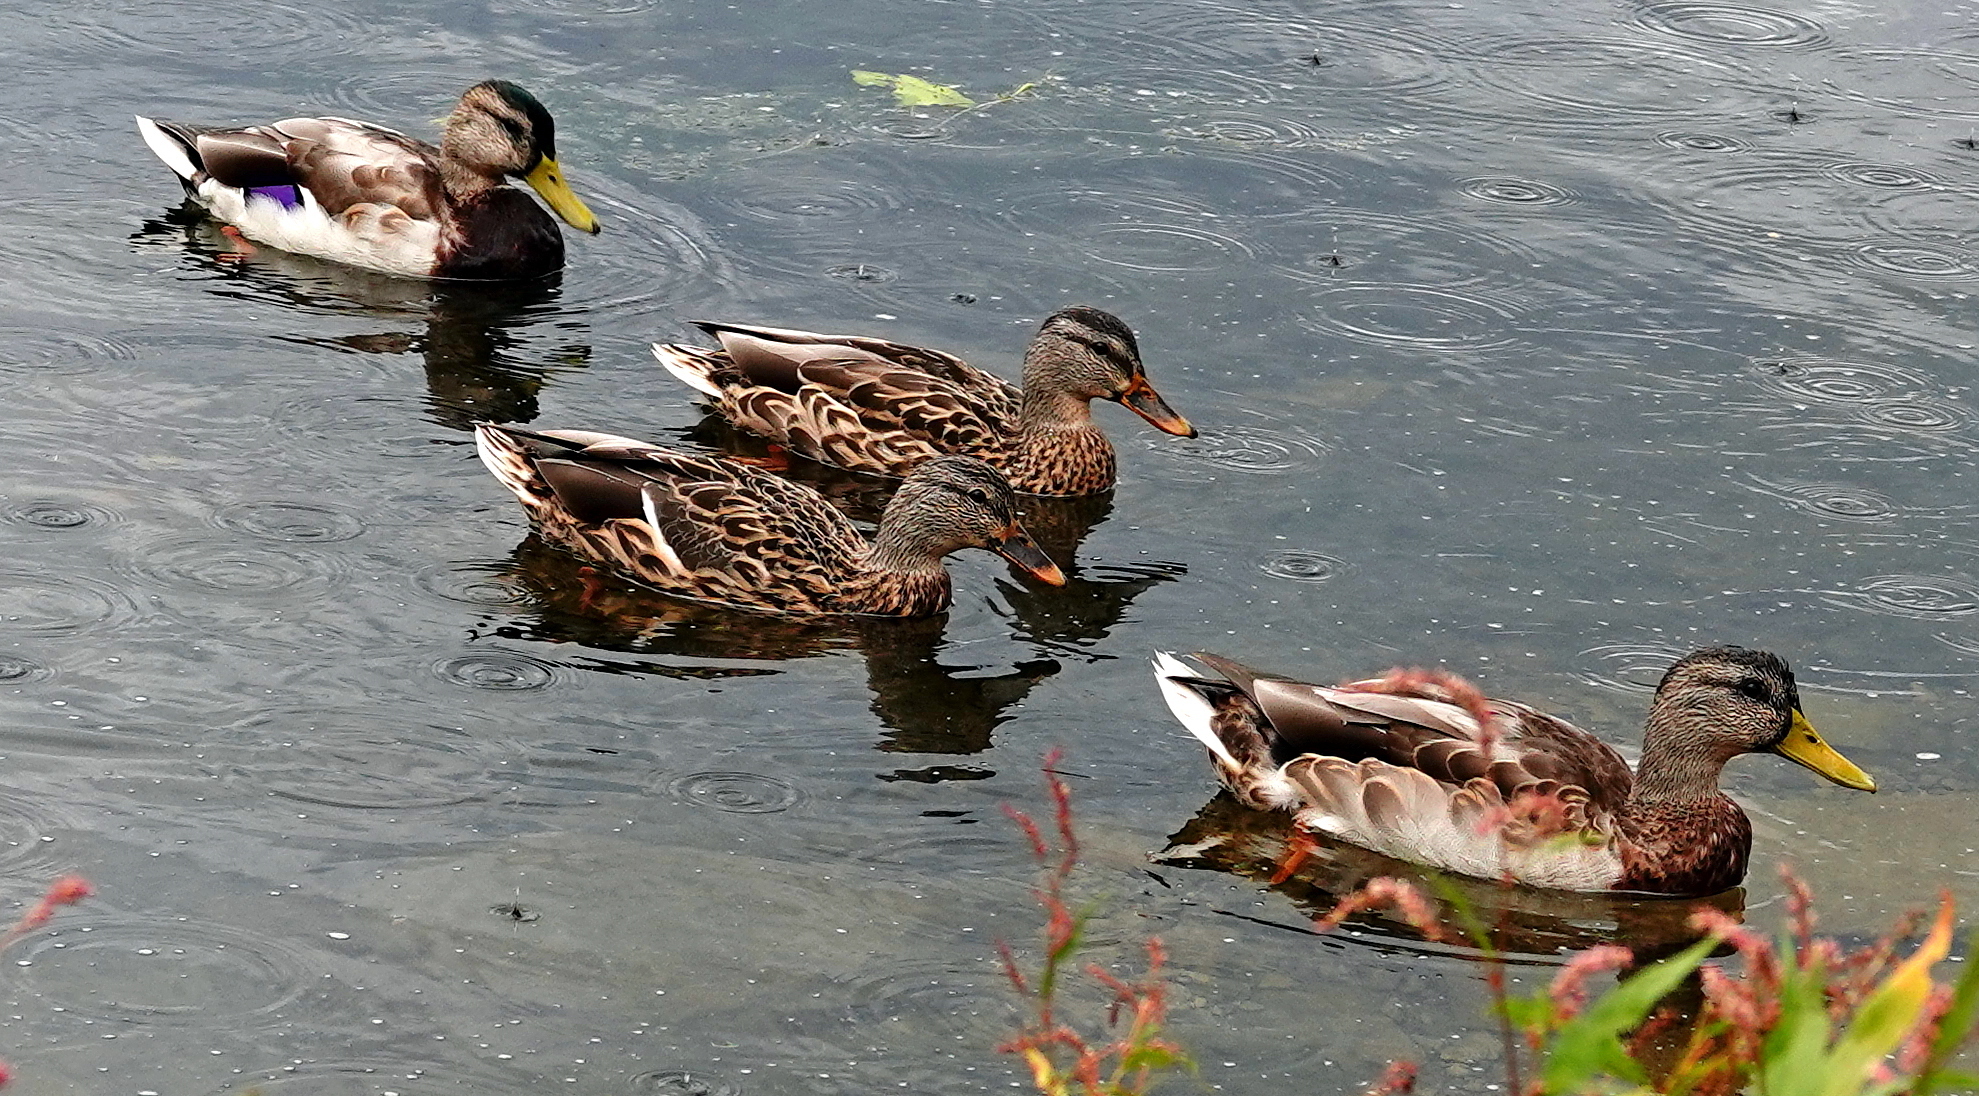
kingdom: Animalia
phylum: Chordata
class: Aves
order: Anseriformes
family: Anatidae
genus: Anas
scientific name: Anas platyrhynchos
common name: Mallard
